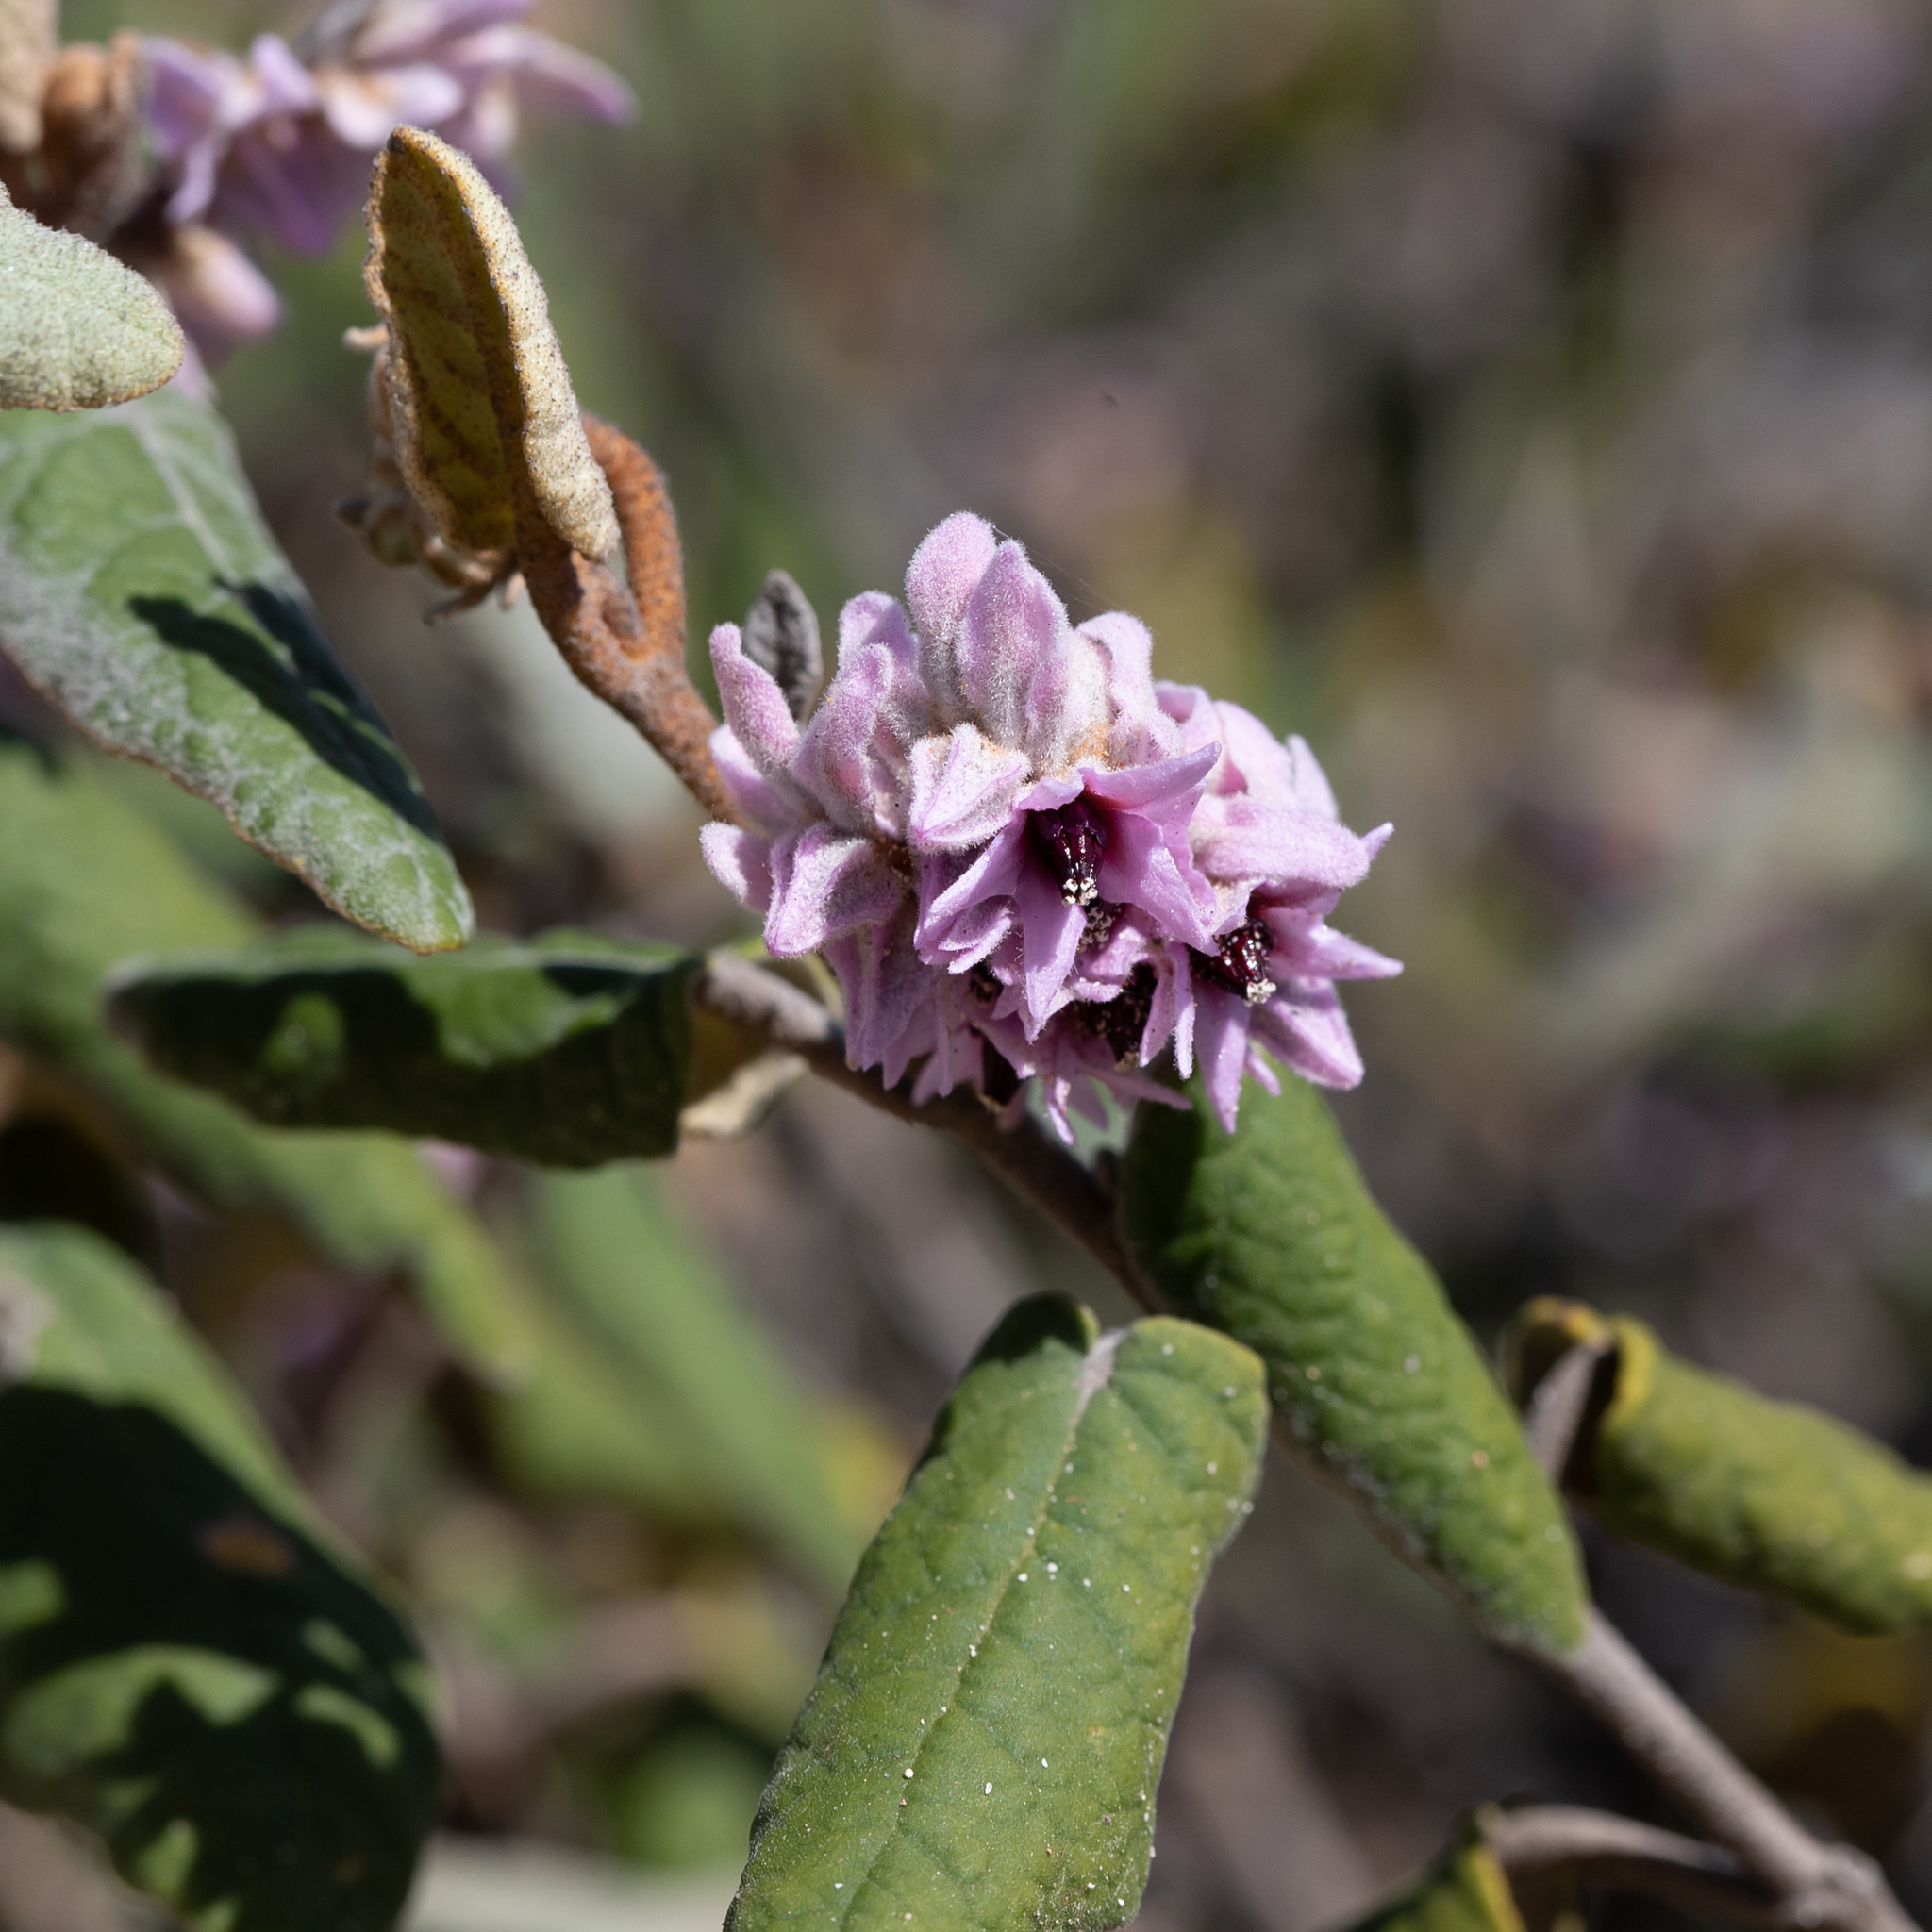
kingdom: Plantae
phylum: Tracheophyta
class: Magnoliopsida
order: Malvales
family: Malvaceae
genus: Lasiopetalum
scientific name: Lasiopetalum discolor
